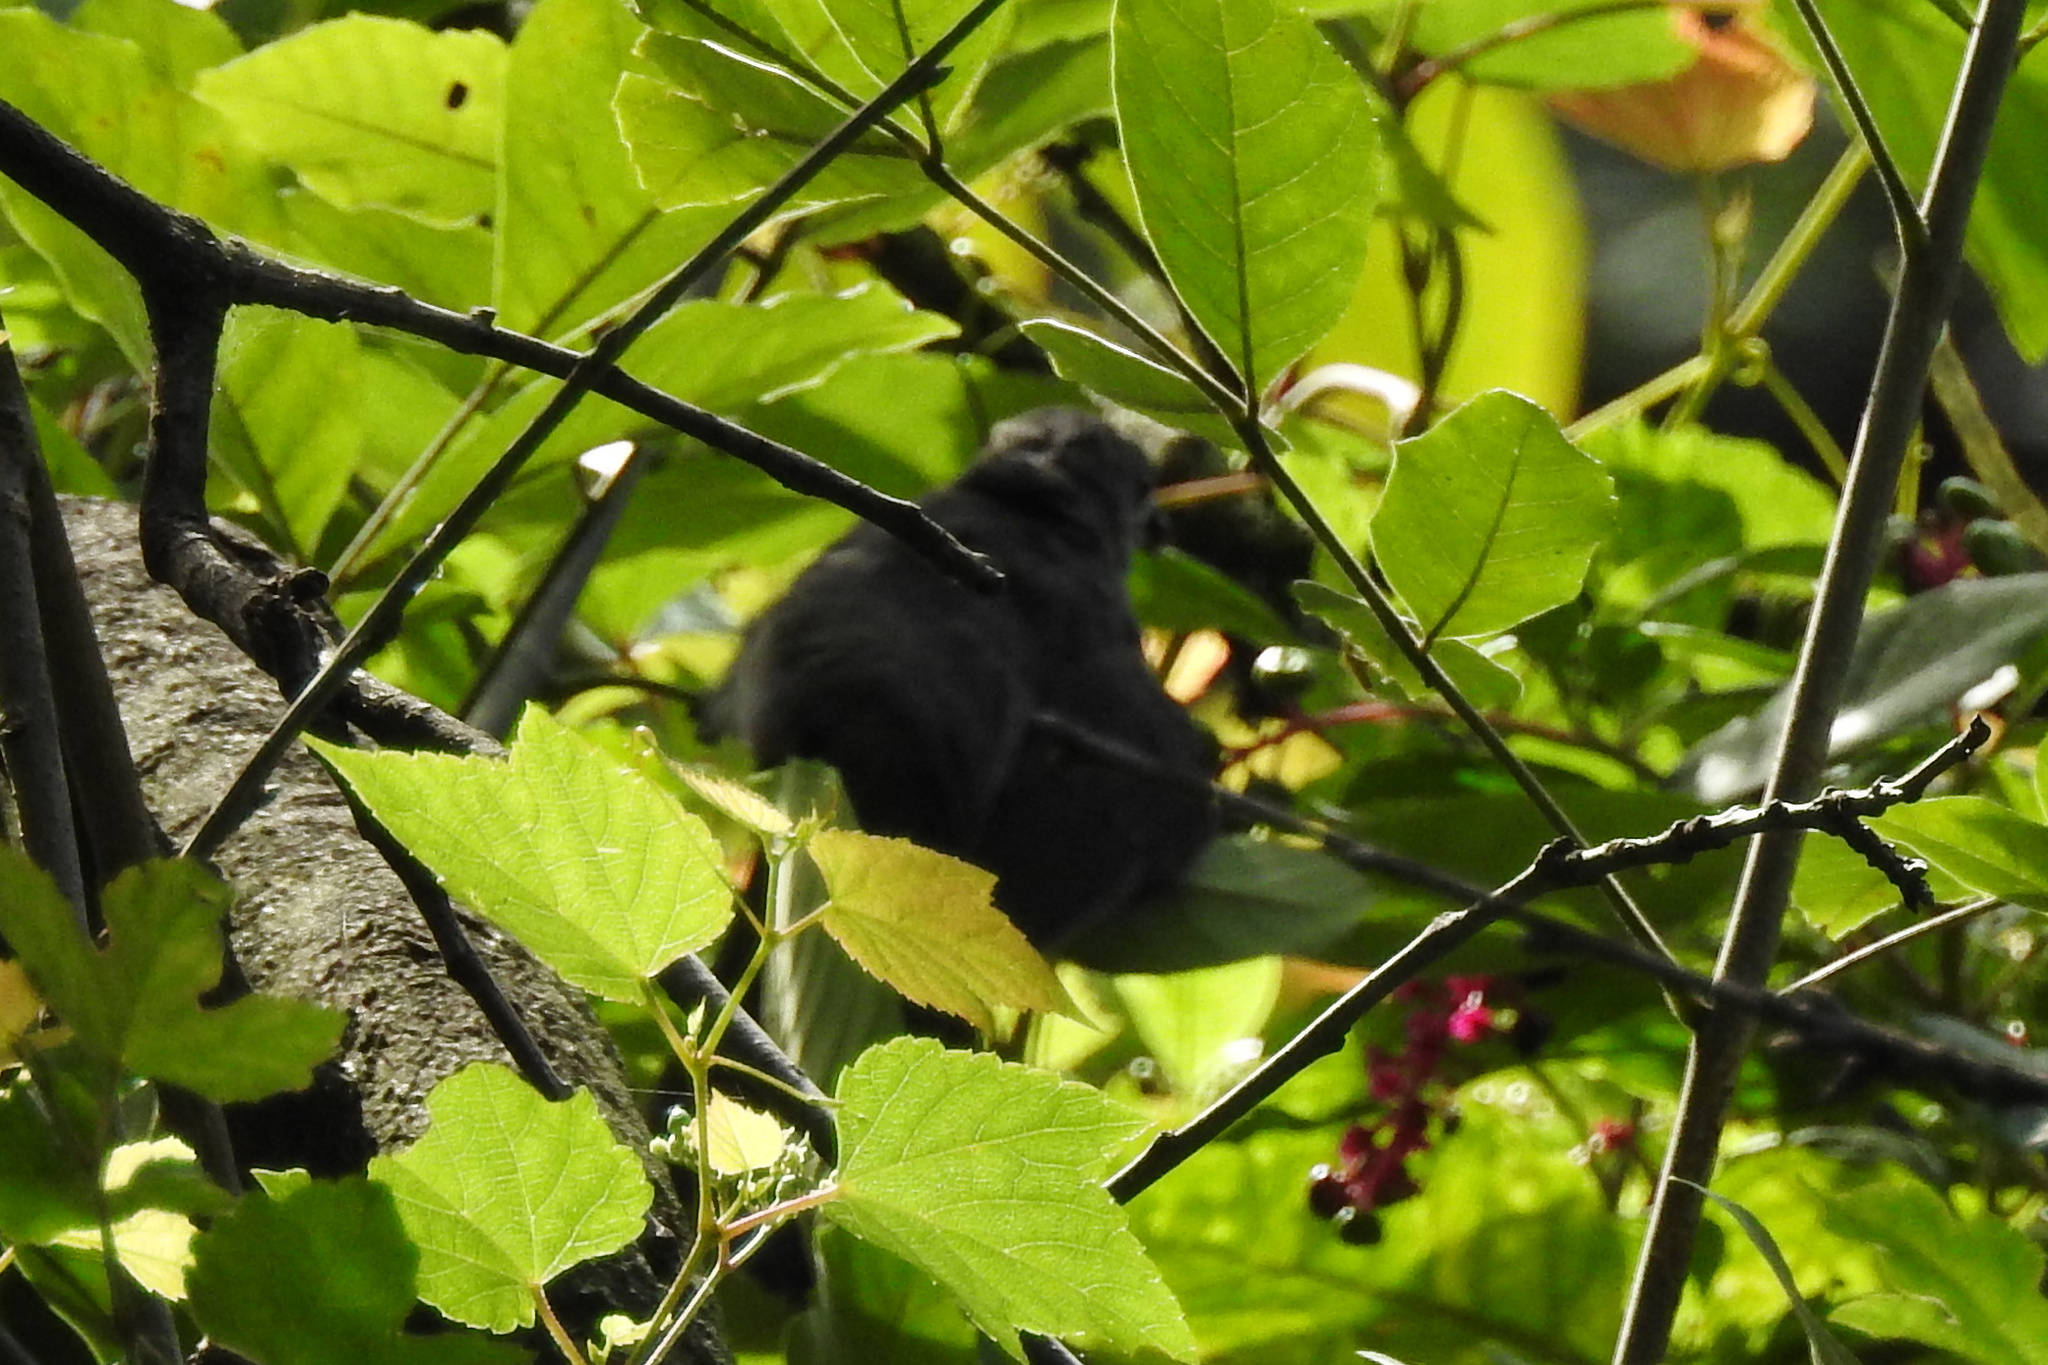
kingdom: Animalia
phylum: Chordata
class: Aves
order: Passeriformes
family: Mimidae
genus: Dumetella
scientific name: Dumetella carolinensis
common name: Gray catbird
